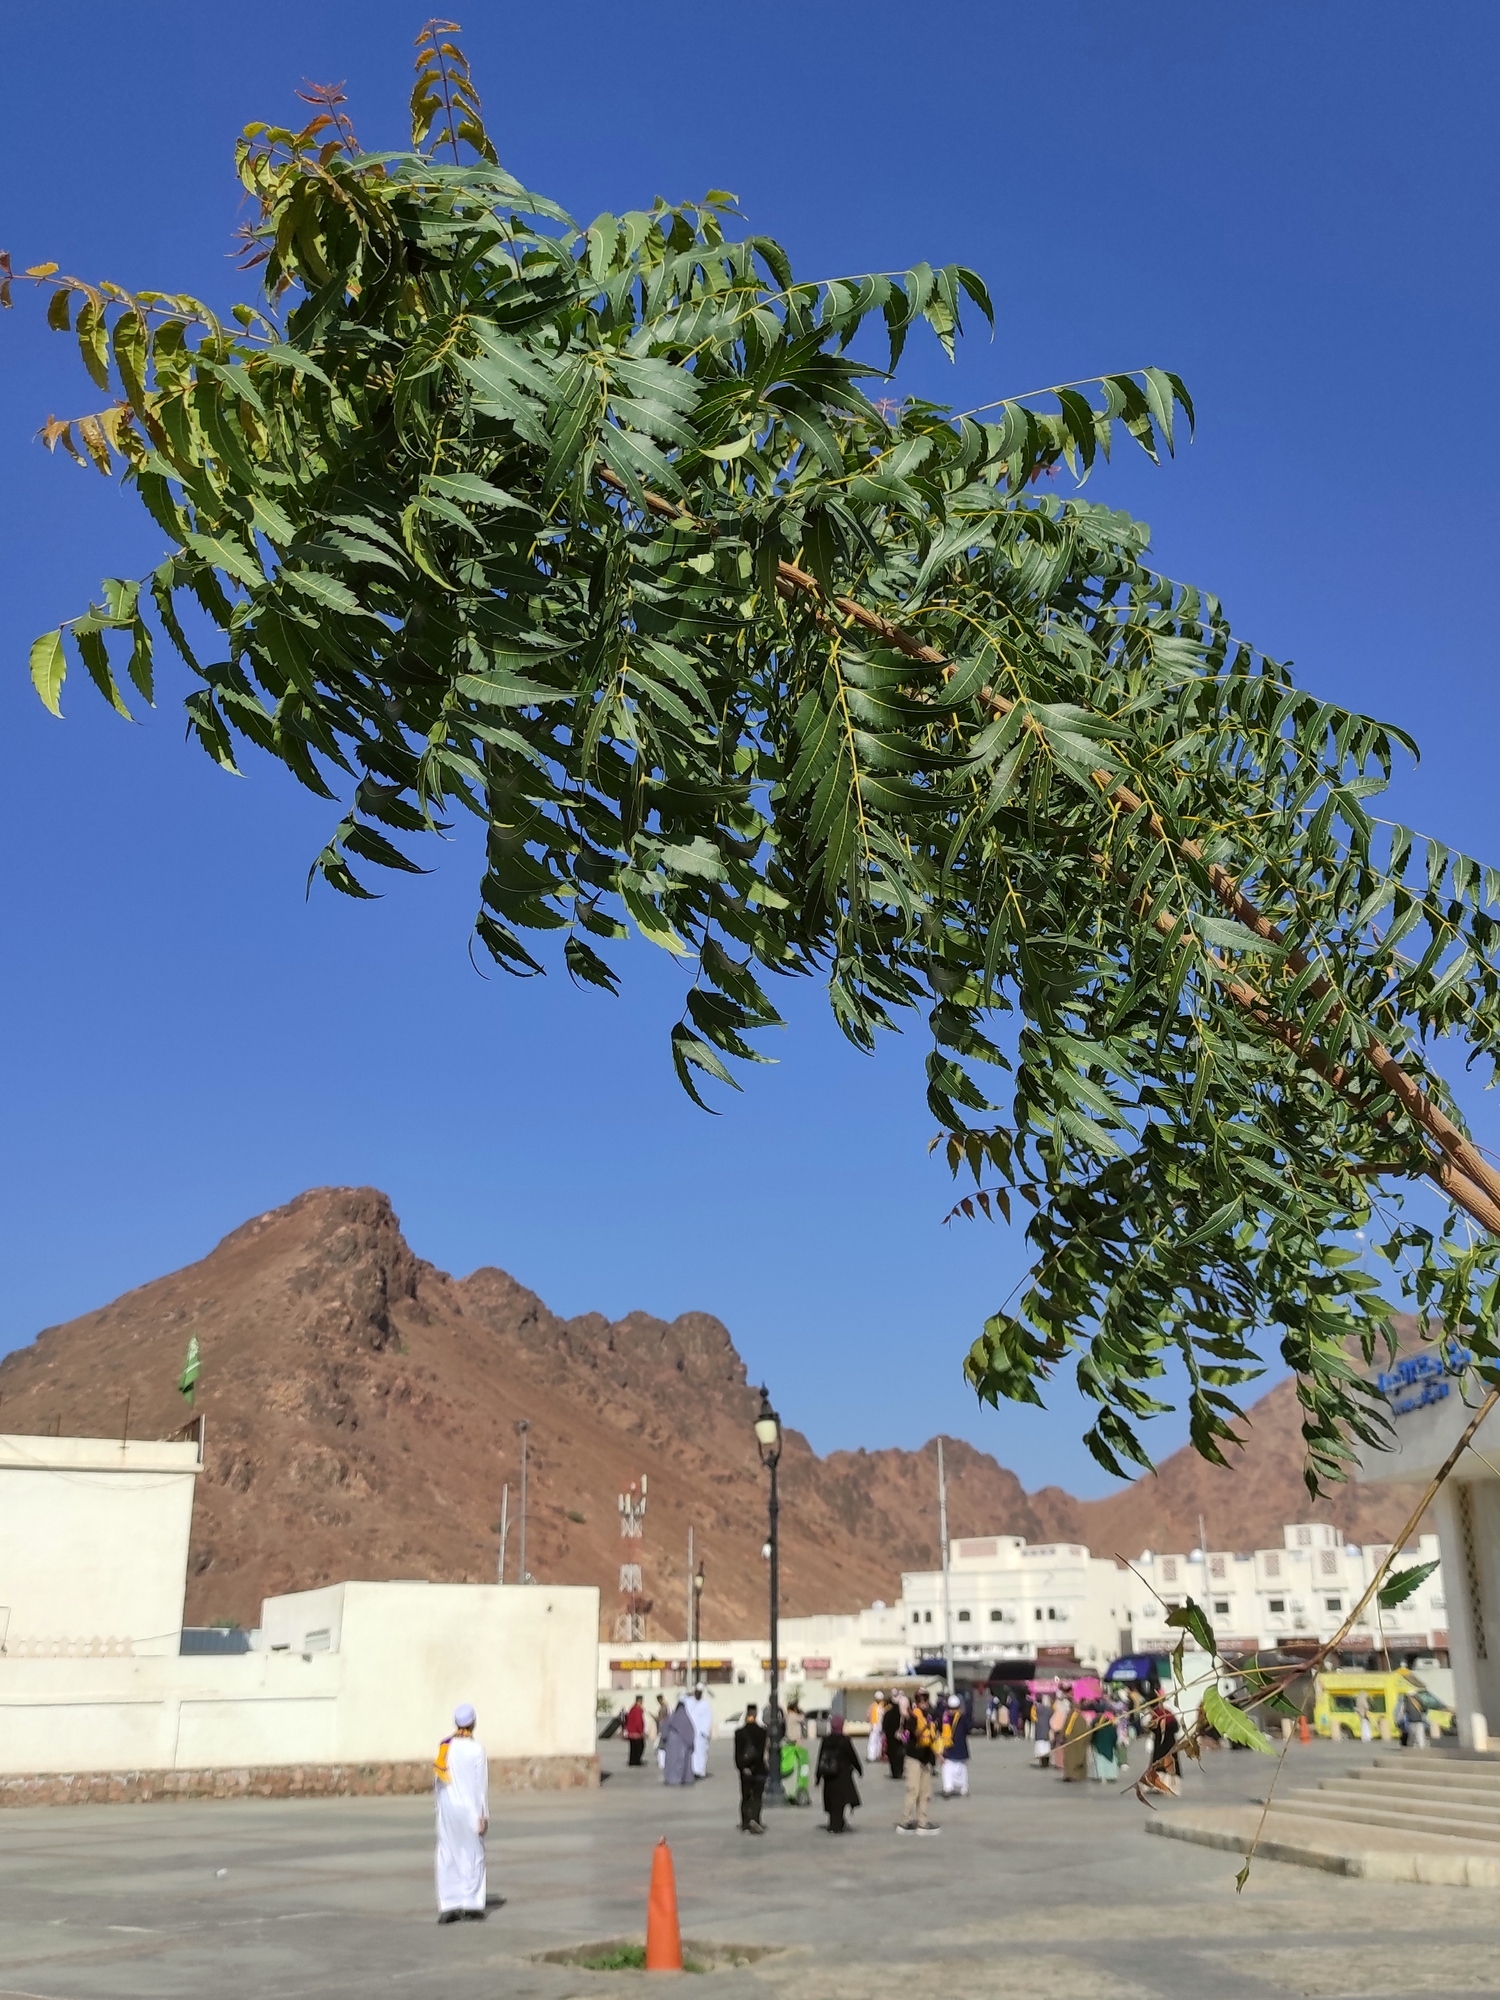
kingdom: Plantae
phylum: Tracheophyta
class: Magnoliopsida
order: Sapindales
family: Meliaceae
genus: Azadirachta
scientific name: Azadirachta indica
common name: Neem
